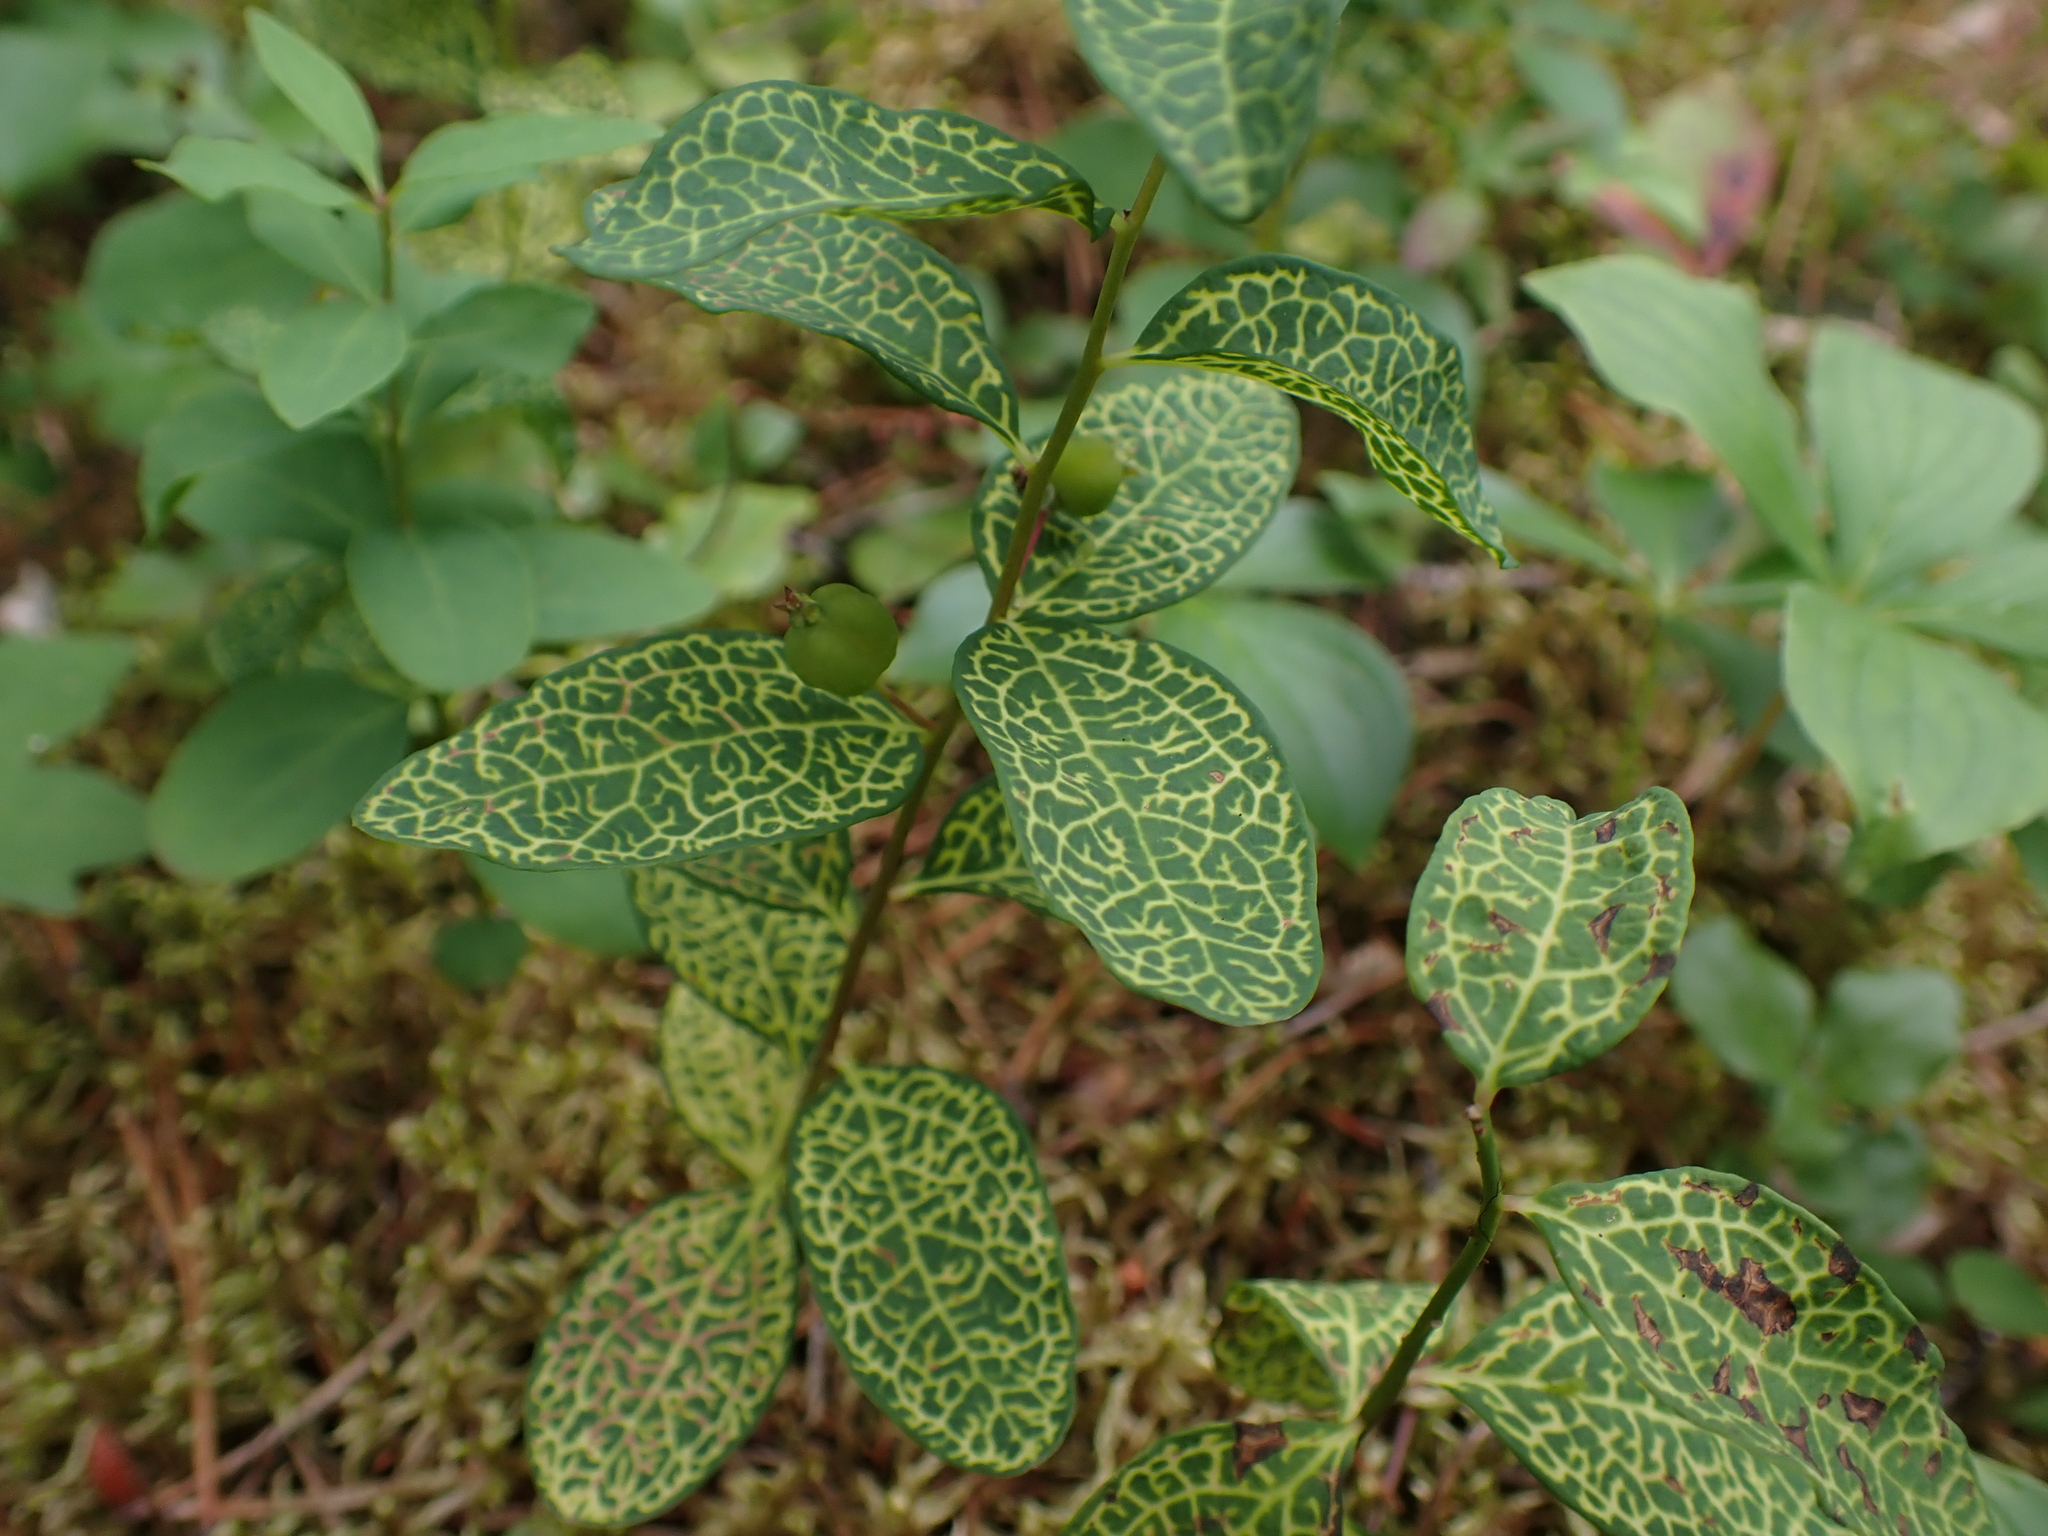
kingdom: Plantae
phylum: Tracheophyta
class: Magnoliopsida
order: Santalales
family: Comandraceae
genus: Geocaulon
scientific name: Geocaulon lividum
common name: Earthberry
